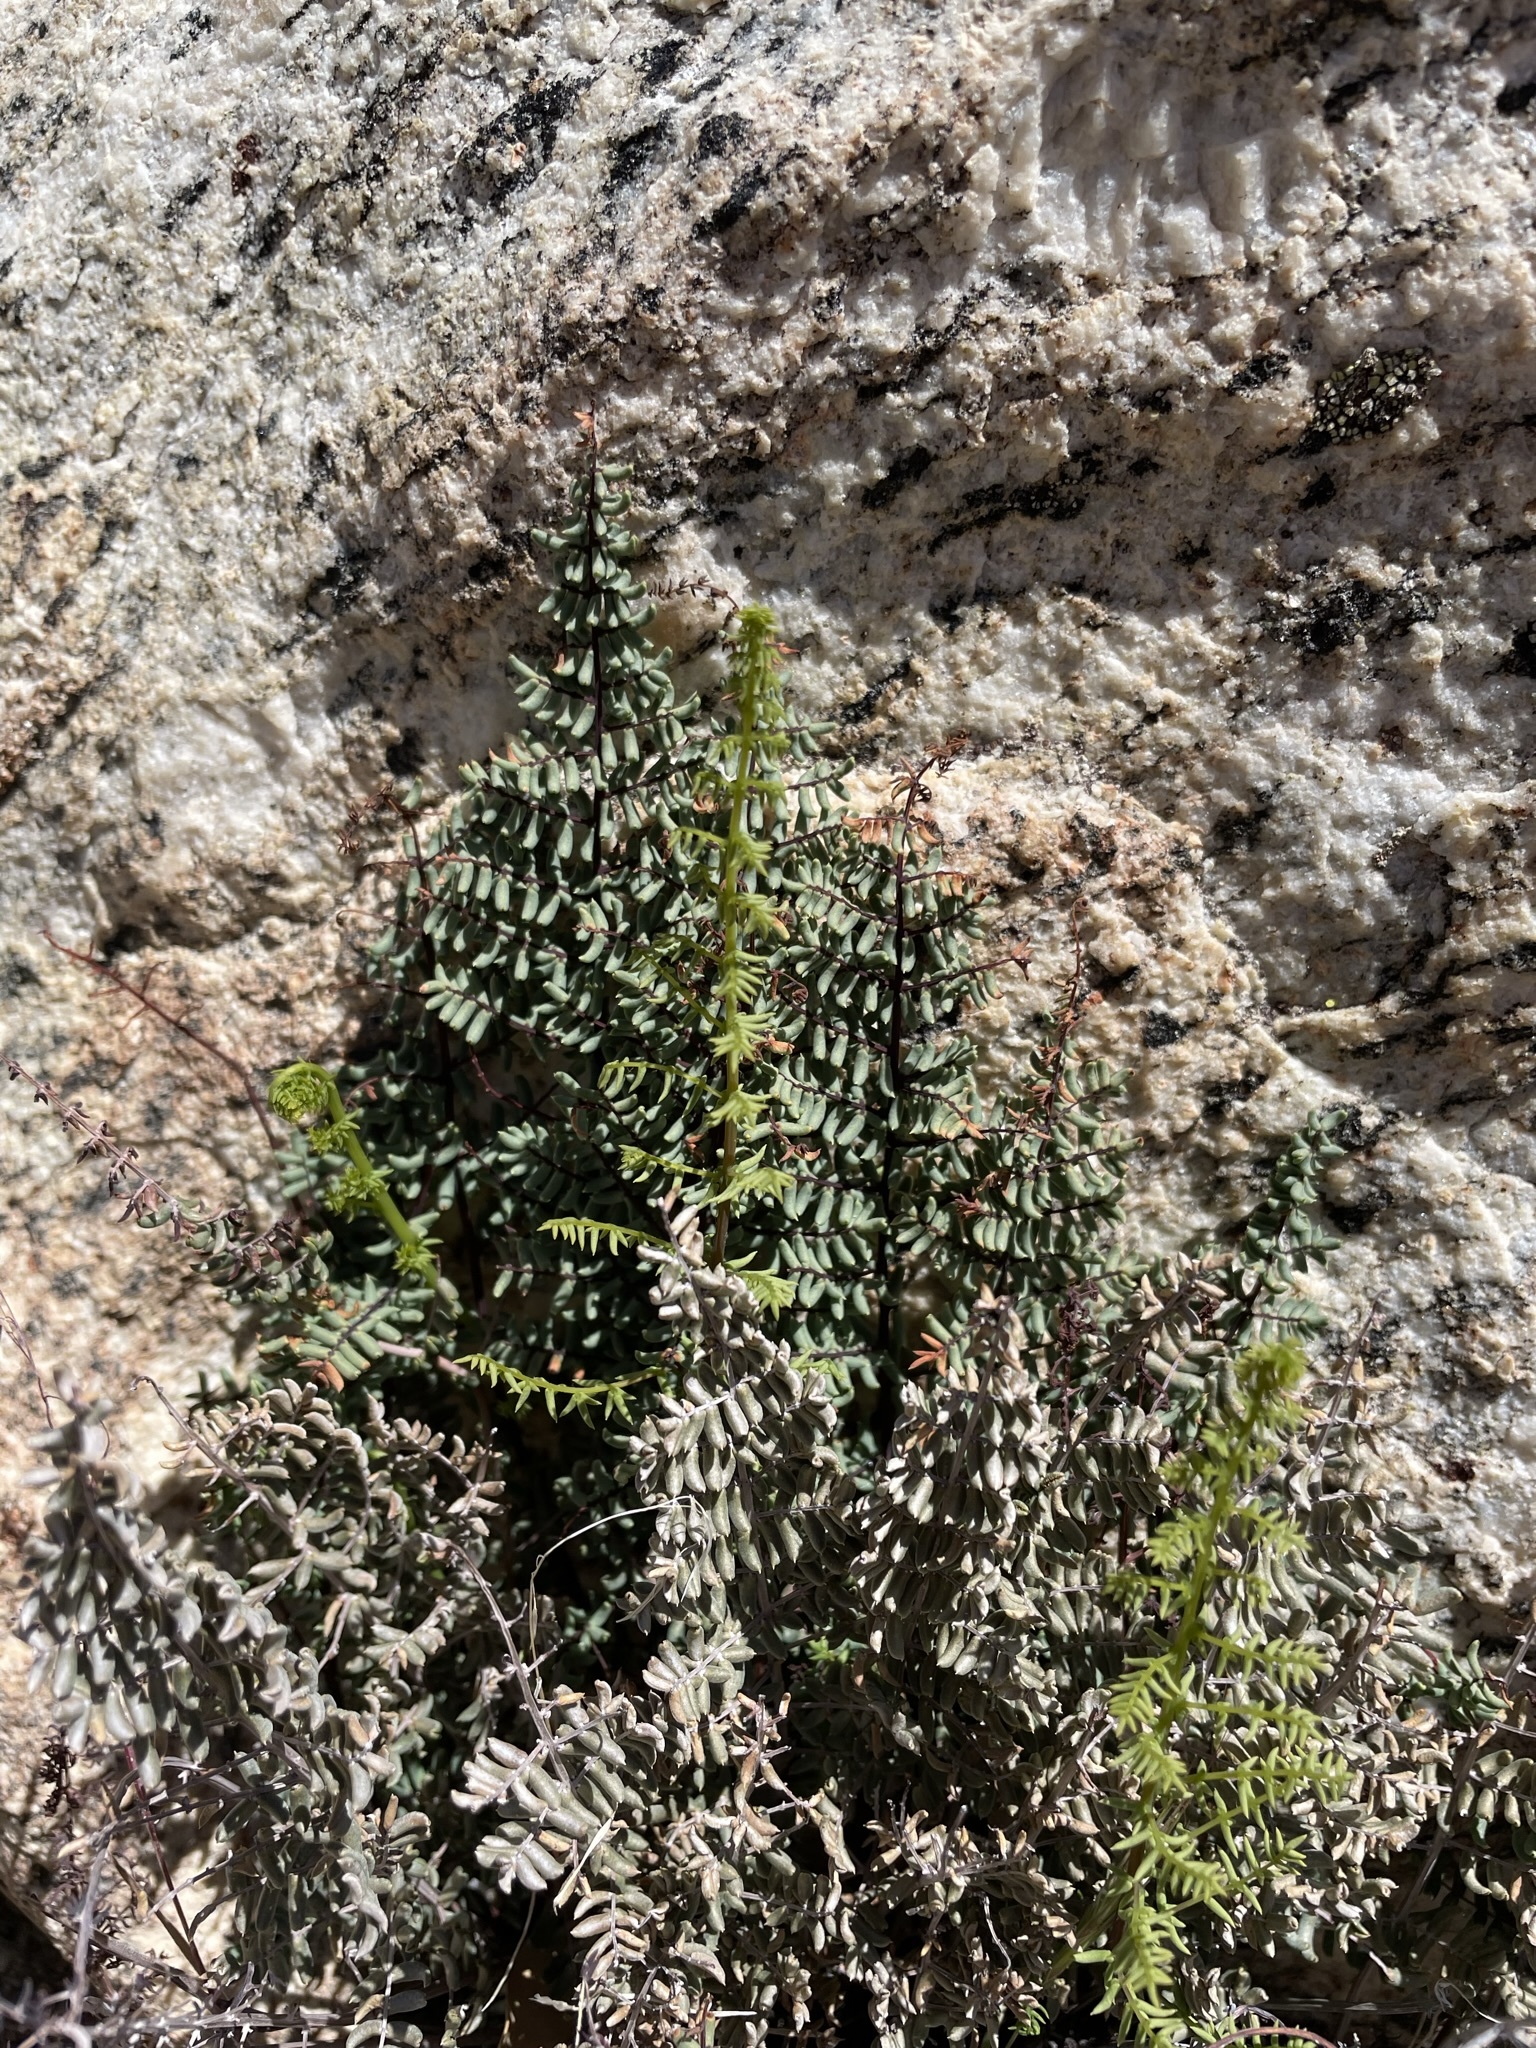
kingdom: Plantae
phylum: Tracheophyta
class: Polypodiopsida
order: Polypodiales
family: Pteridaceae
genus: Pellaea
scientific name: Pellaea mucronata
